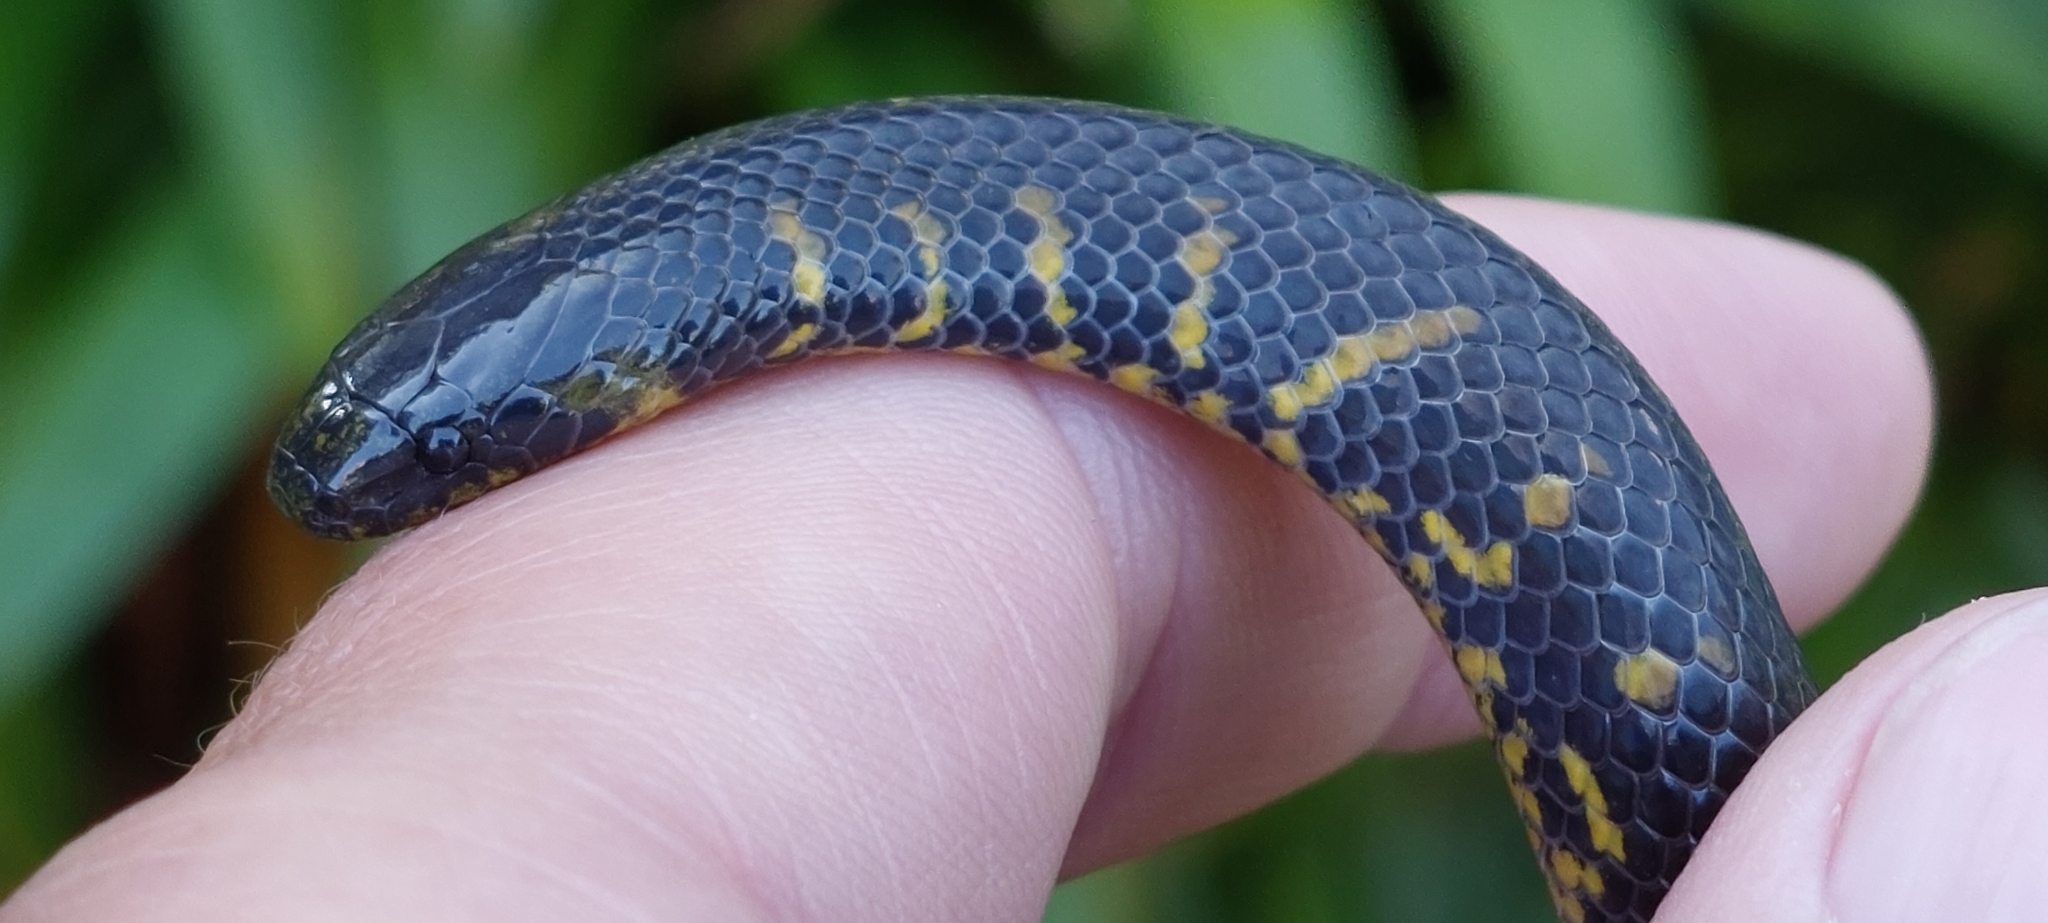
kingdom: Animalia
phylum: Chordata
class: Squamata
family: Colubridae
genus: Atractus
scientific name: Atractus crassicaudatus
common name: Thickhead ground snake
